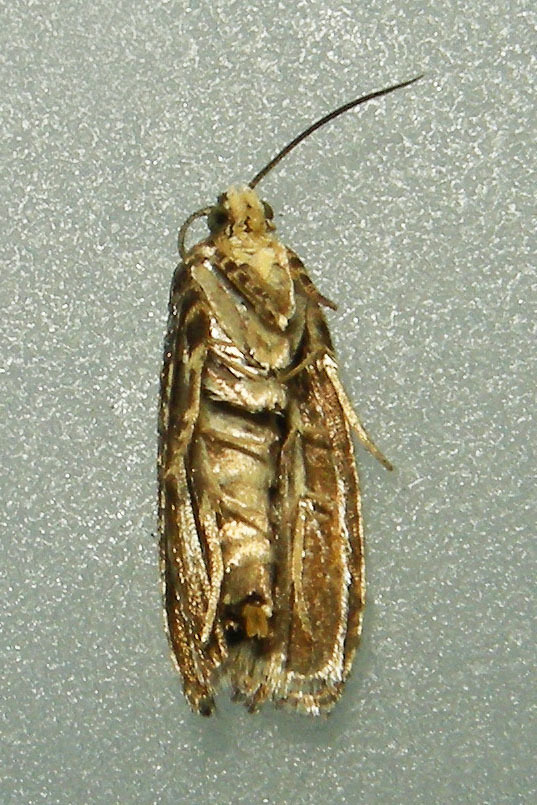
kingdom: Animalia
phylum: Arthropoda
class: Insecta
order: Lepidoptera
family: Tortricidae
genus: Pristerognatha
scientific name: Pristerognatha agilana
